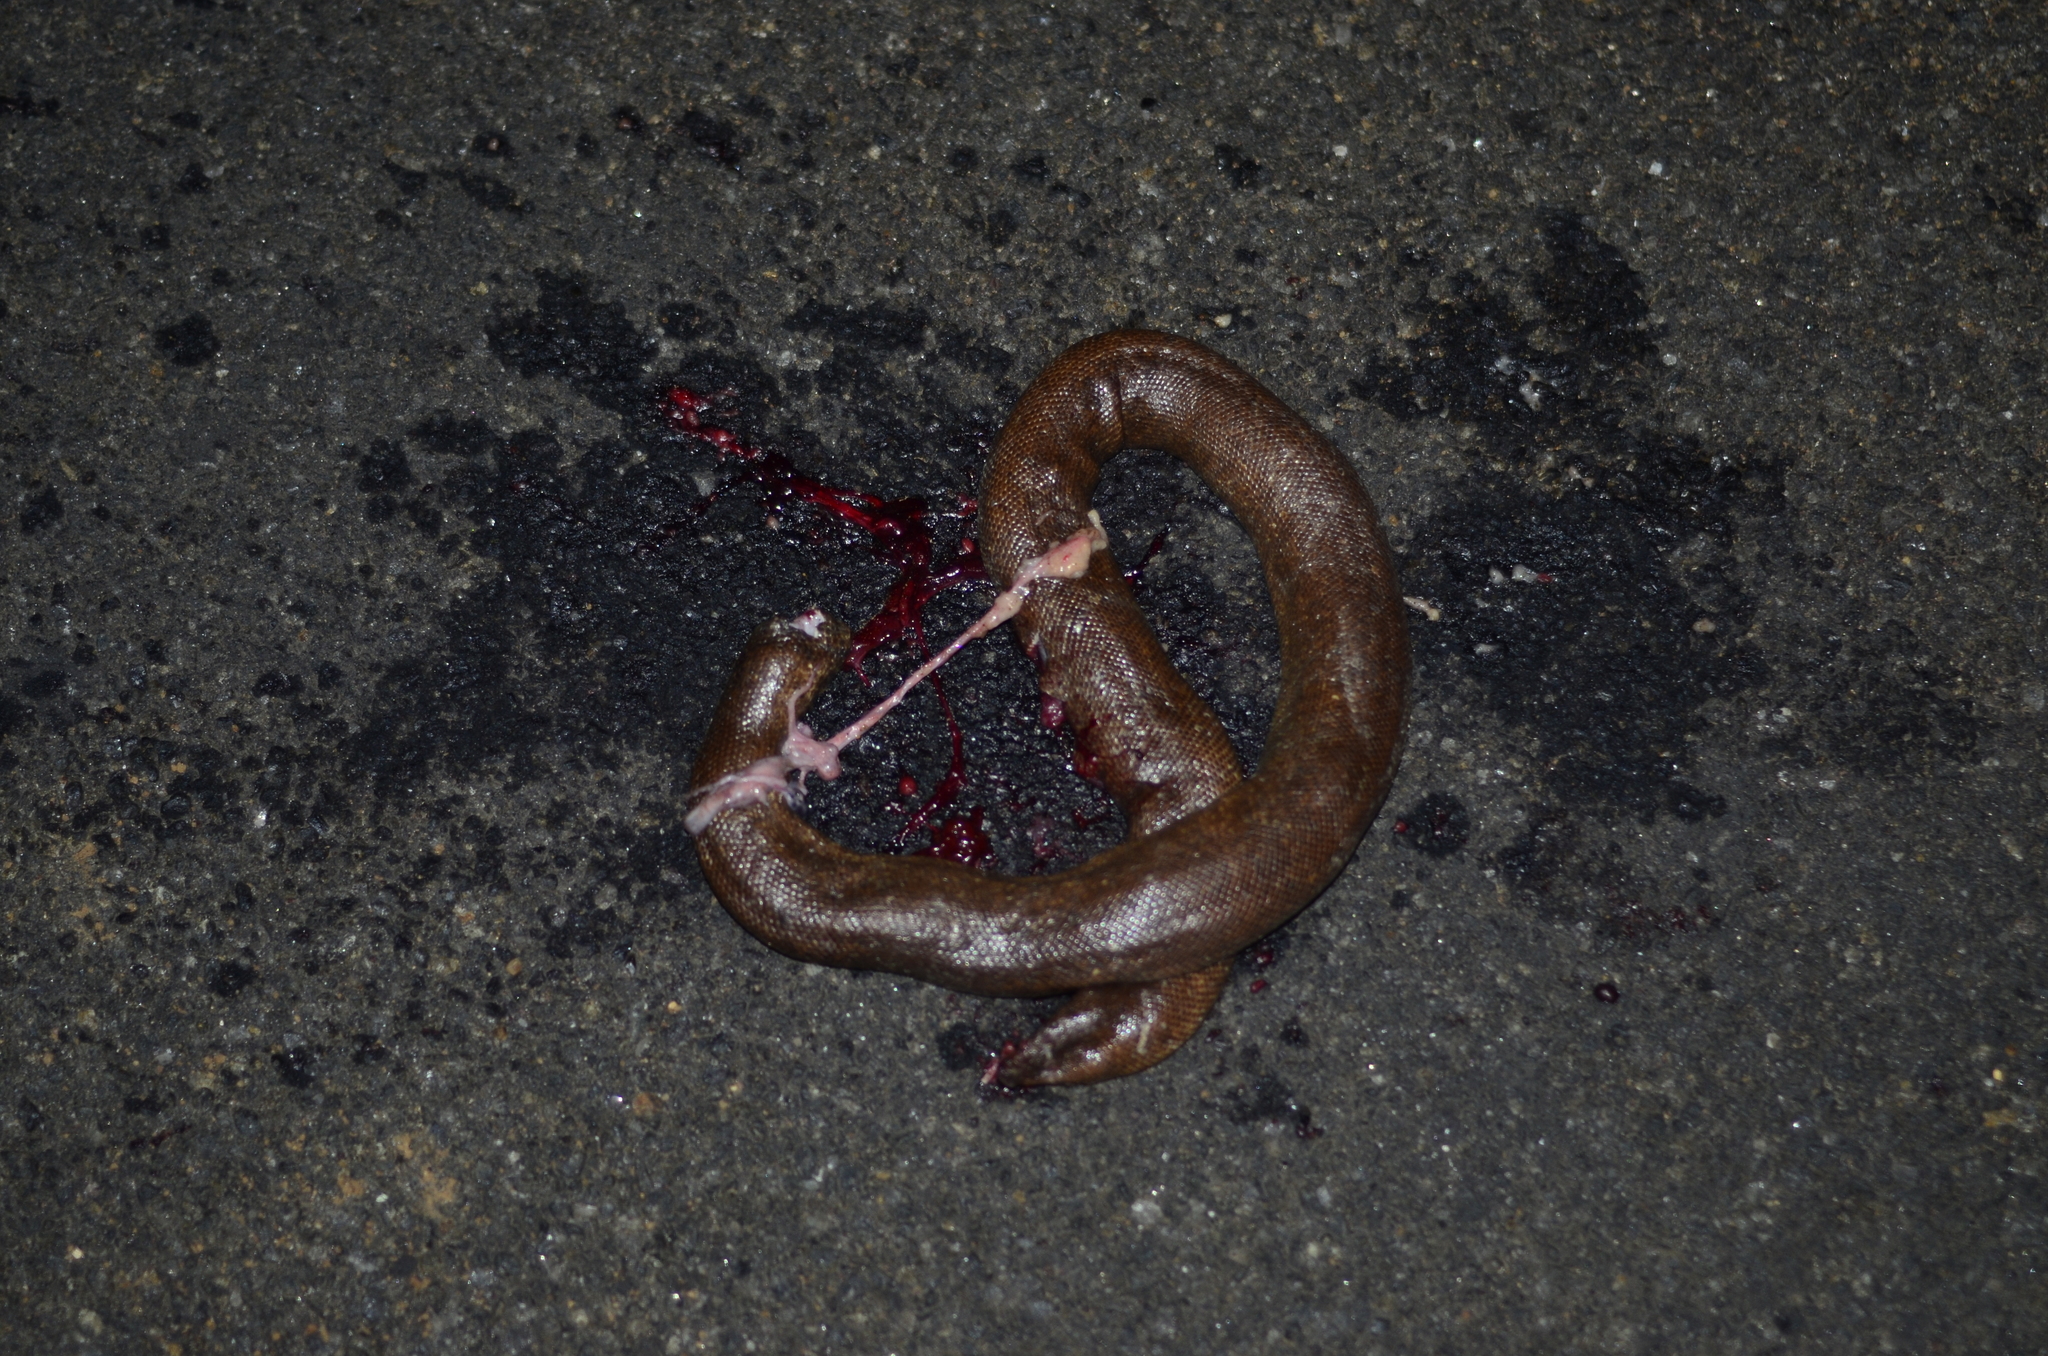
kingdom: Animalia
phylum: Chordata
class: Squamata
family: Boidae
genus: Eryx
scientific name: Eryx johnii
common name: Brown sand boa
